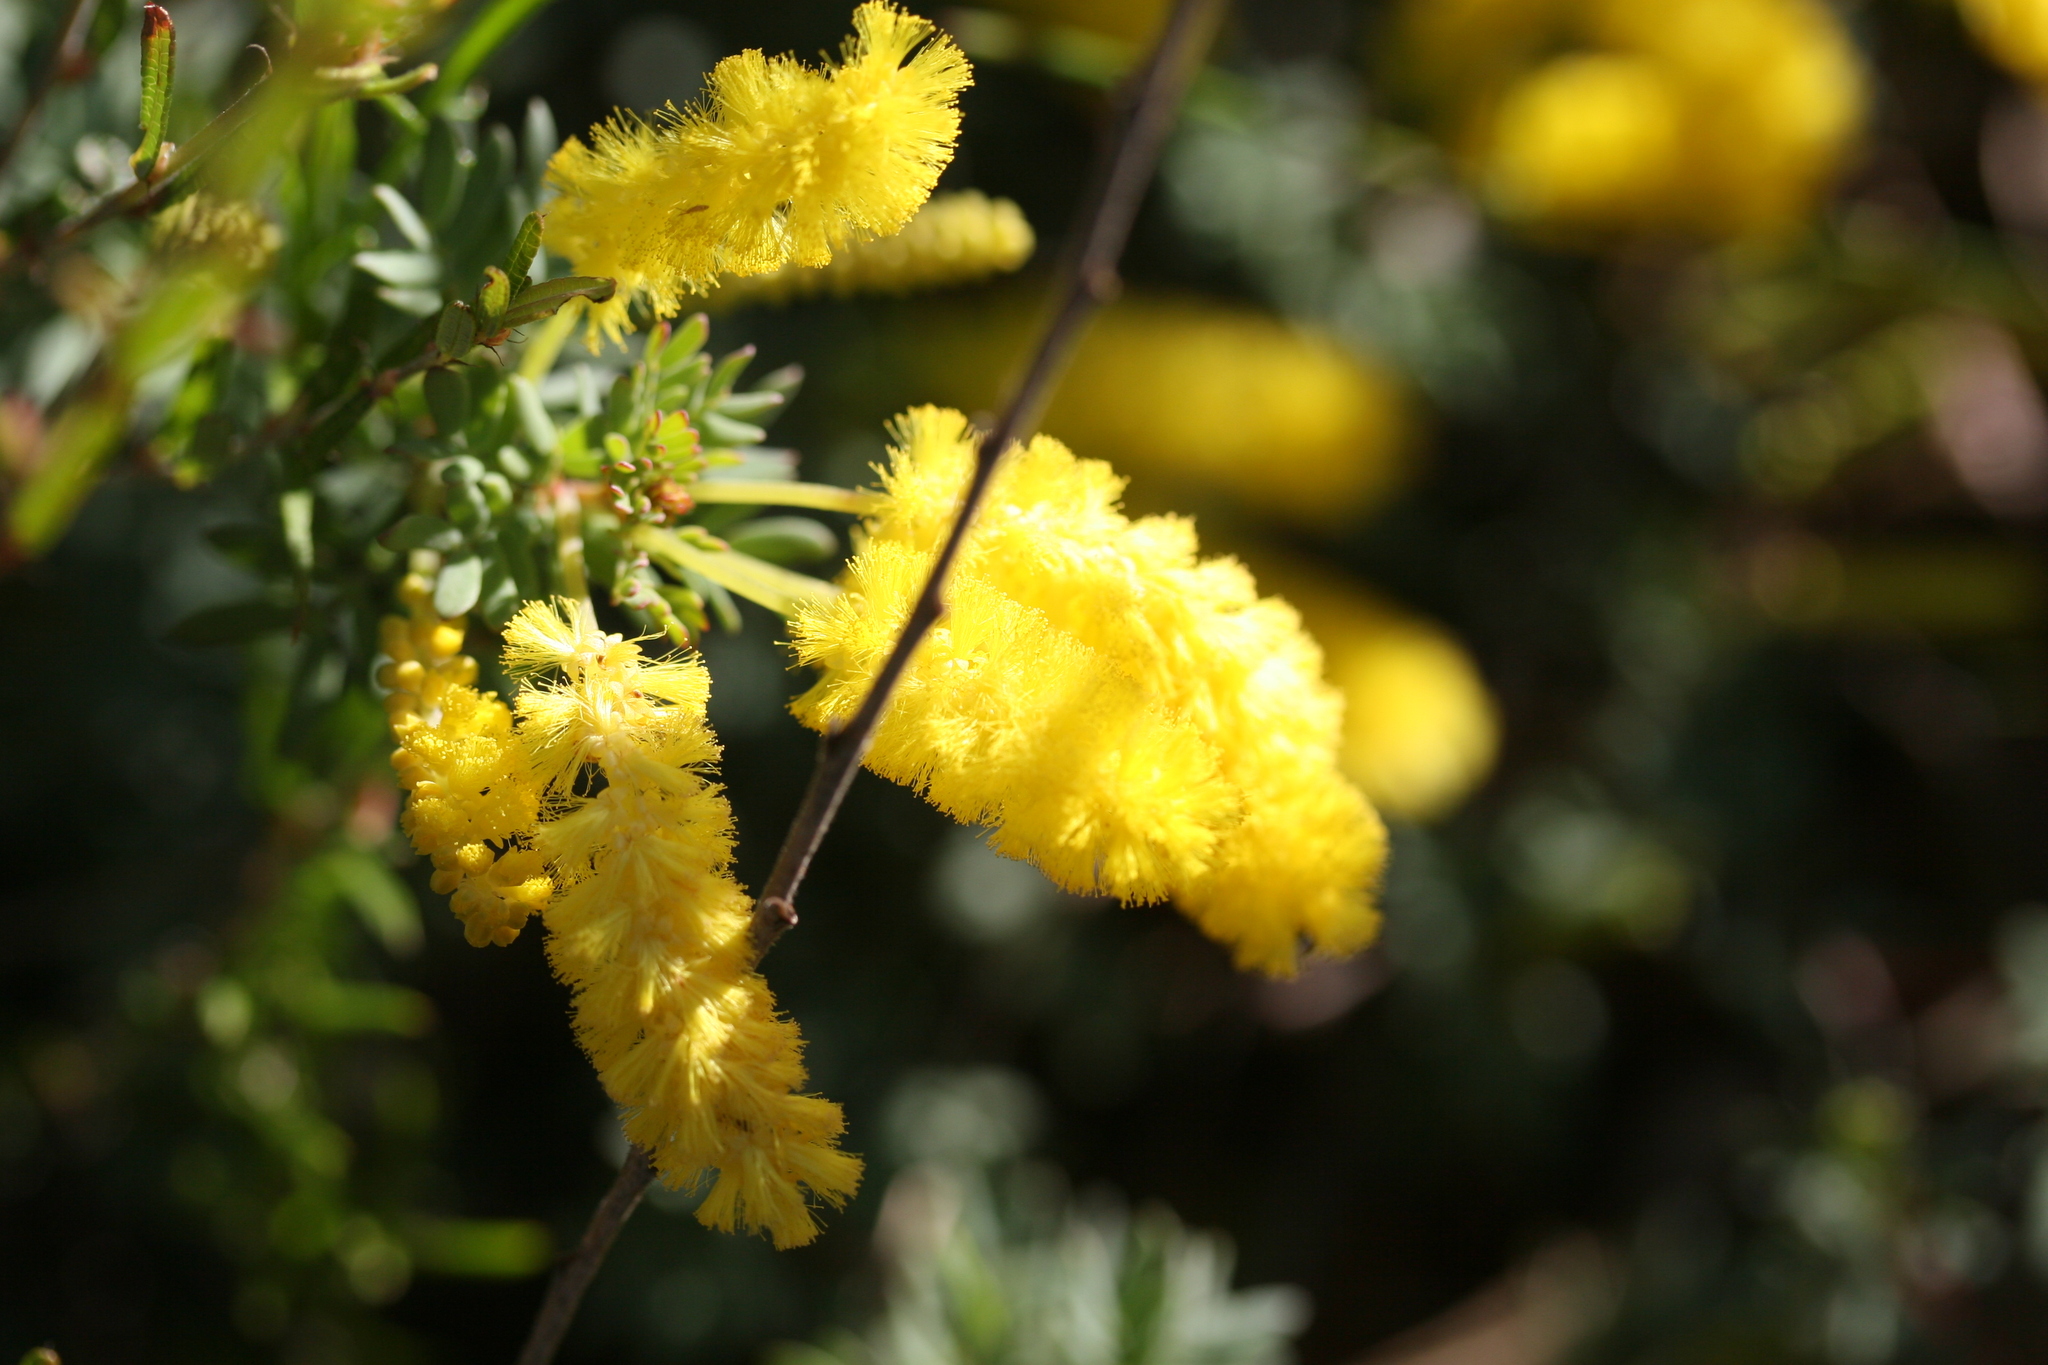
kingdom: Plantae
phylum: Tracheophyta
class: Magnoliopsida
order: Fabales
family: Fabaceae
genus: Acacia
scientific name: Acacia drummondii
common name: Drummond's wattle
